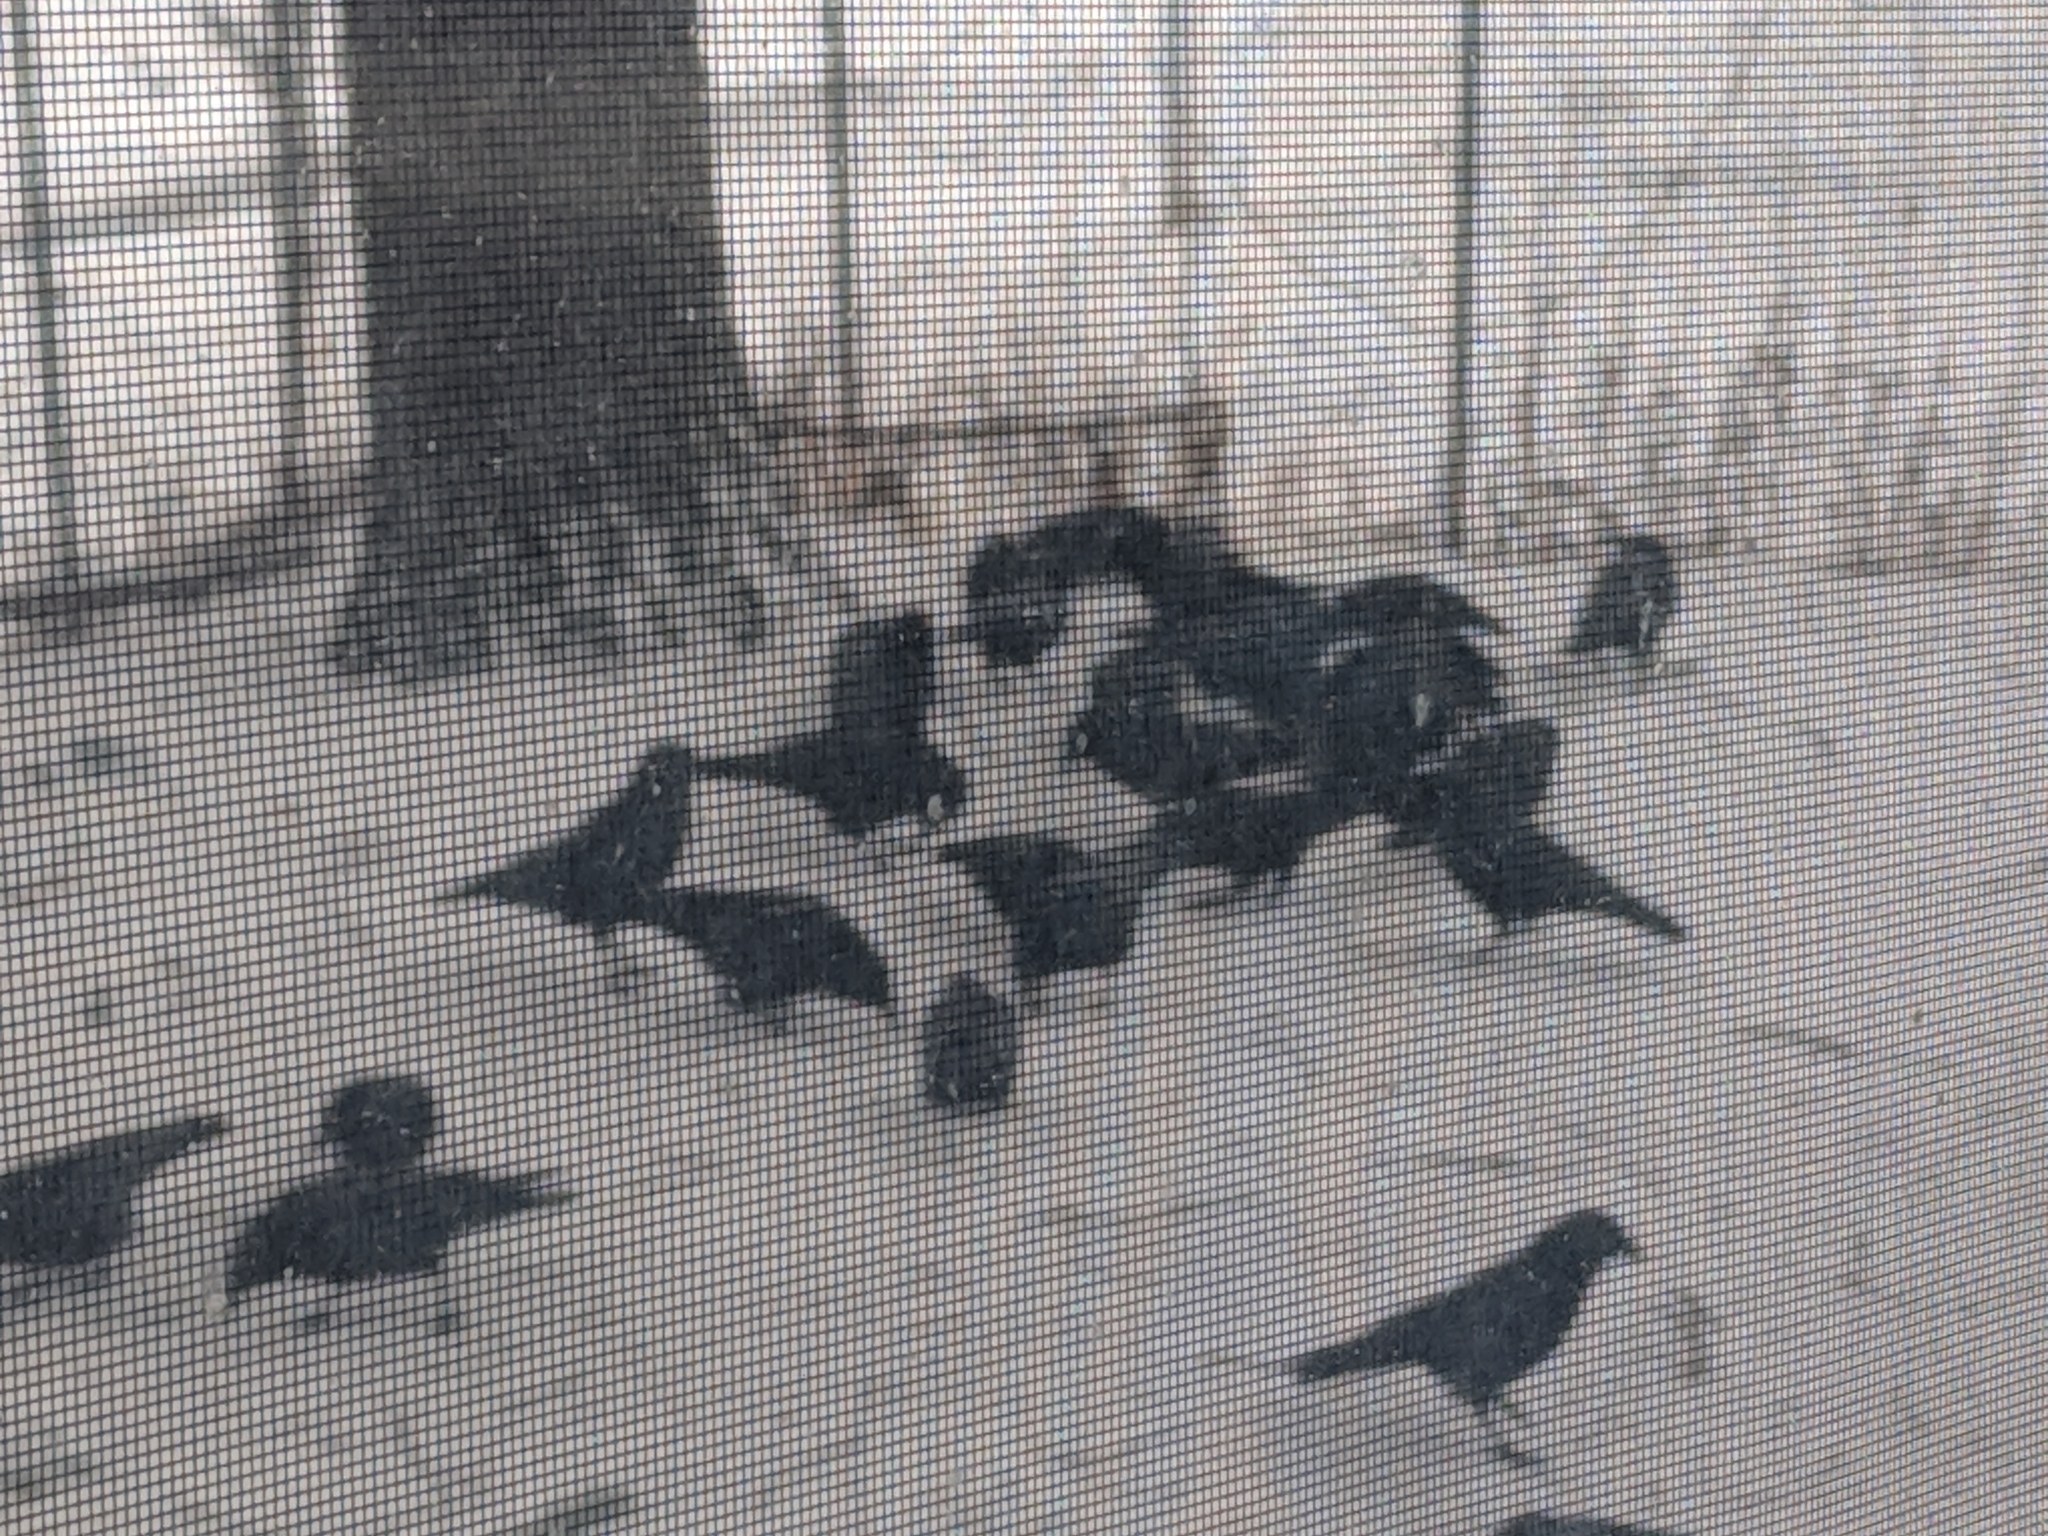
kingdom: Animalia
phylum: Chordata
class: Aves
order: Passeriformes
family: Corvidae
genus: Corvus
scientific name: Corvus brachyrhynchos
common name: American crow
